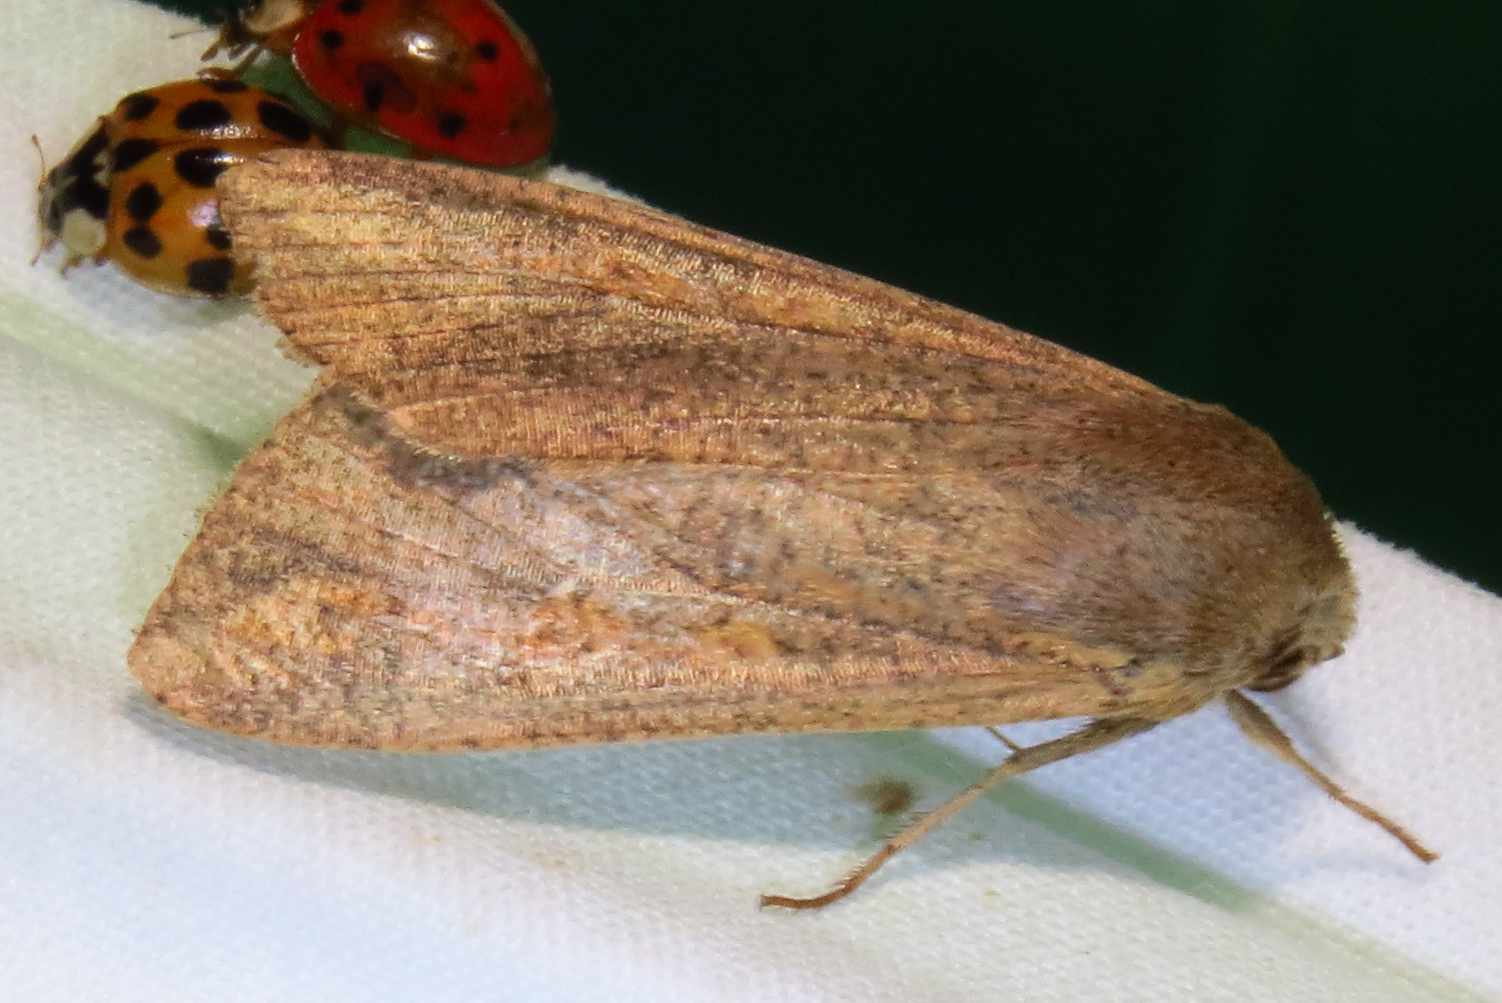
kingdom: Animalia
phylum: Arthropoda
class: Insecta
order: Lepidoptera
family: Noctuidae
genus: Mythimna
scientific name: Mythimna unipuncta
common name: White-speck
